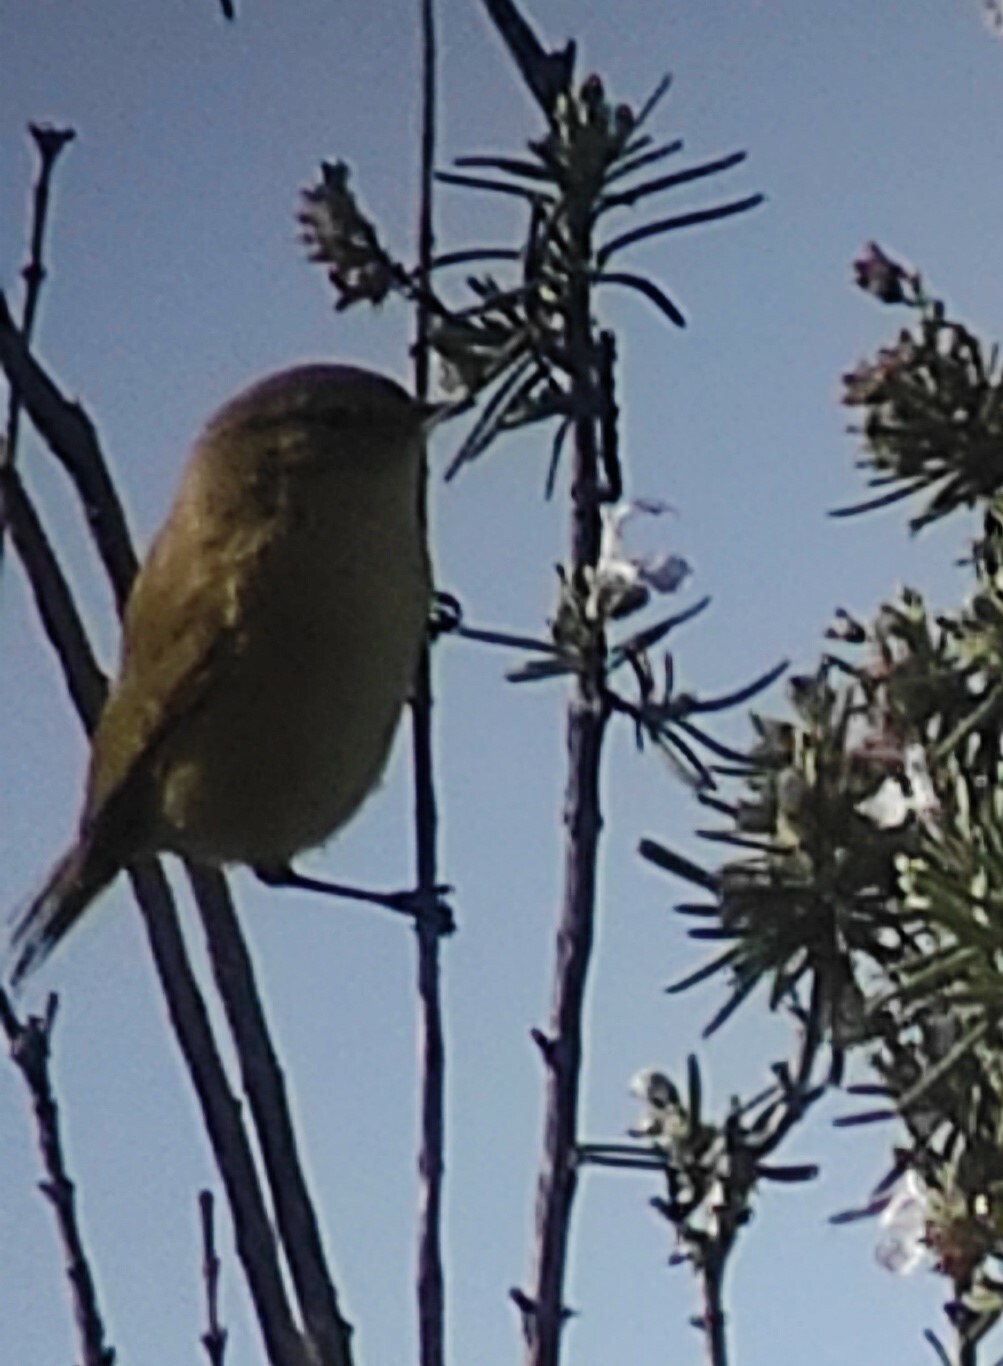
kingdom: Animalia
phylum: Chordata
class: Aves
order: Passeriformes
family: Phylloscopidae
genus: Phylloscopus
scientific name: Phylloscopus collybita
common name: Common chiffchaff
